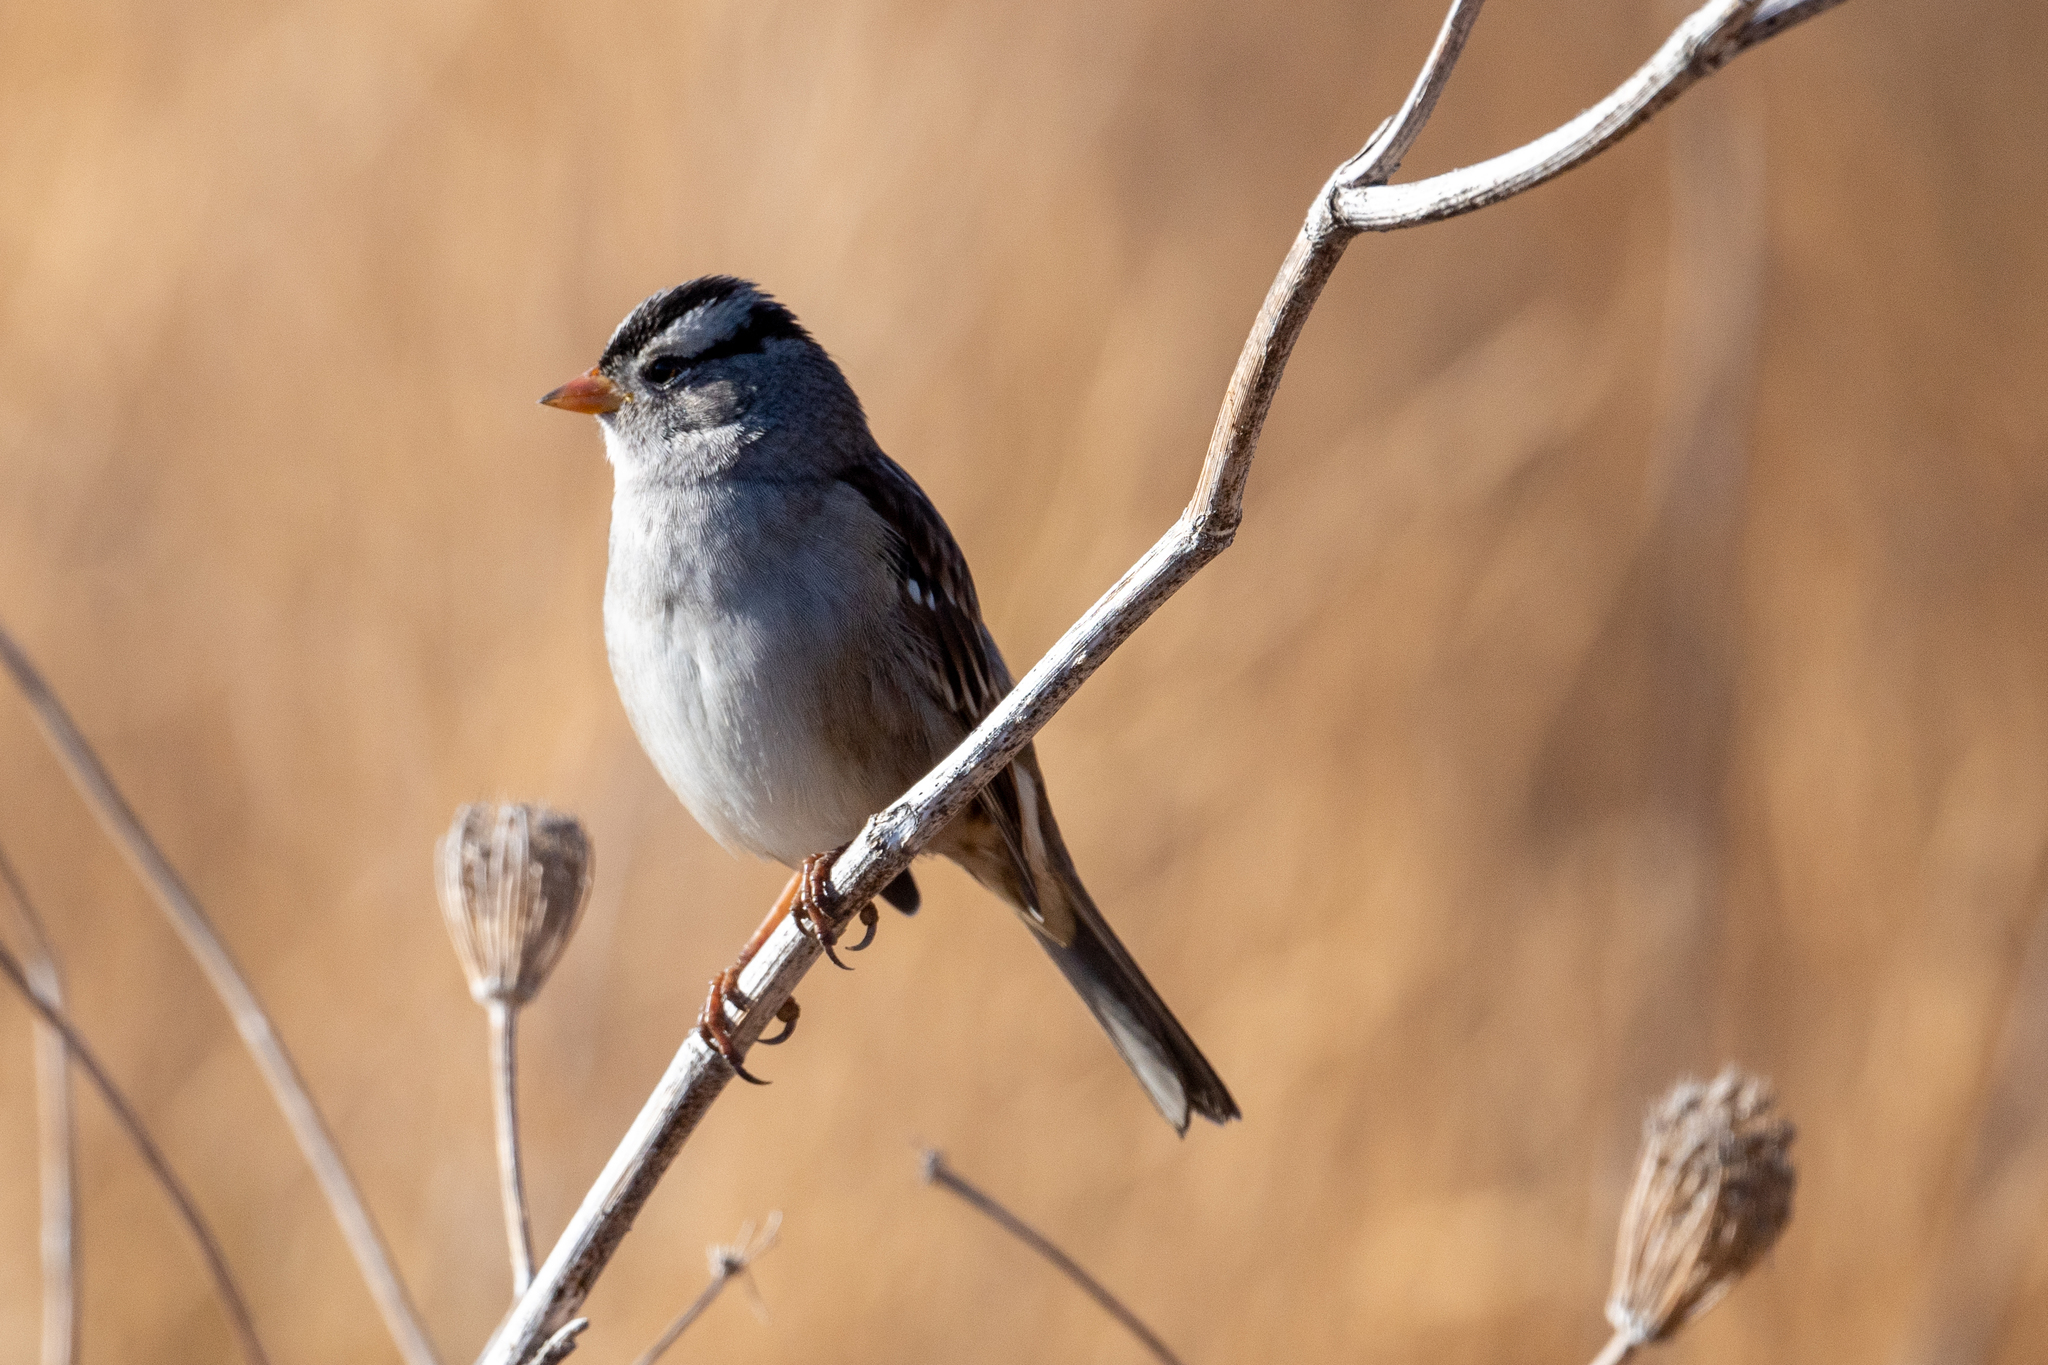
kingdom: Animalia
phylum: Chordata
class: Aves
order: Passeriformes
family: Passerellidae
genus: Zonotrichia
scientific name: Zonotrichia leucophrys
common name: White-crowned sparrow
